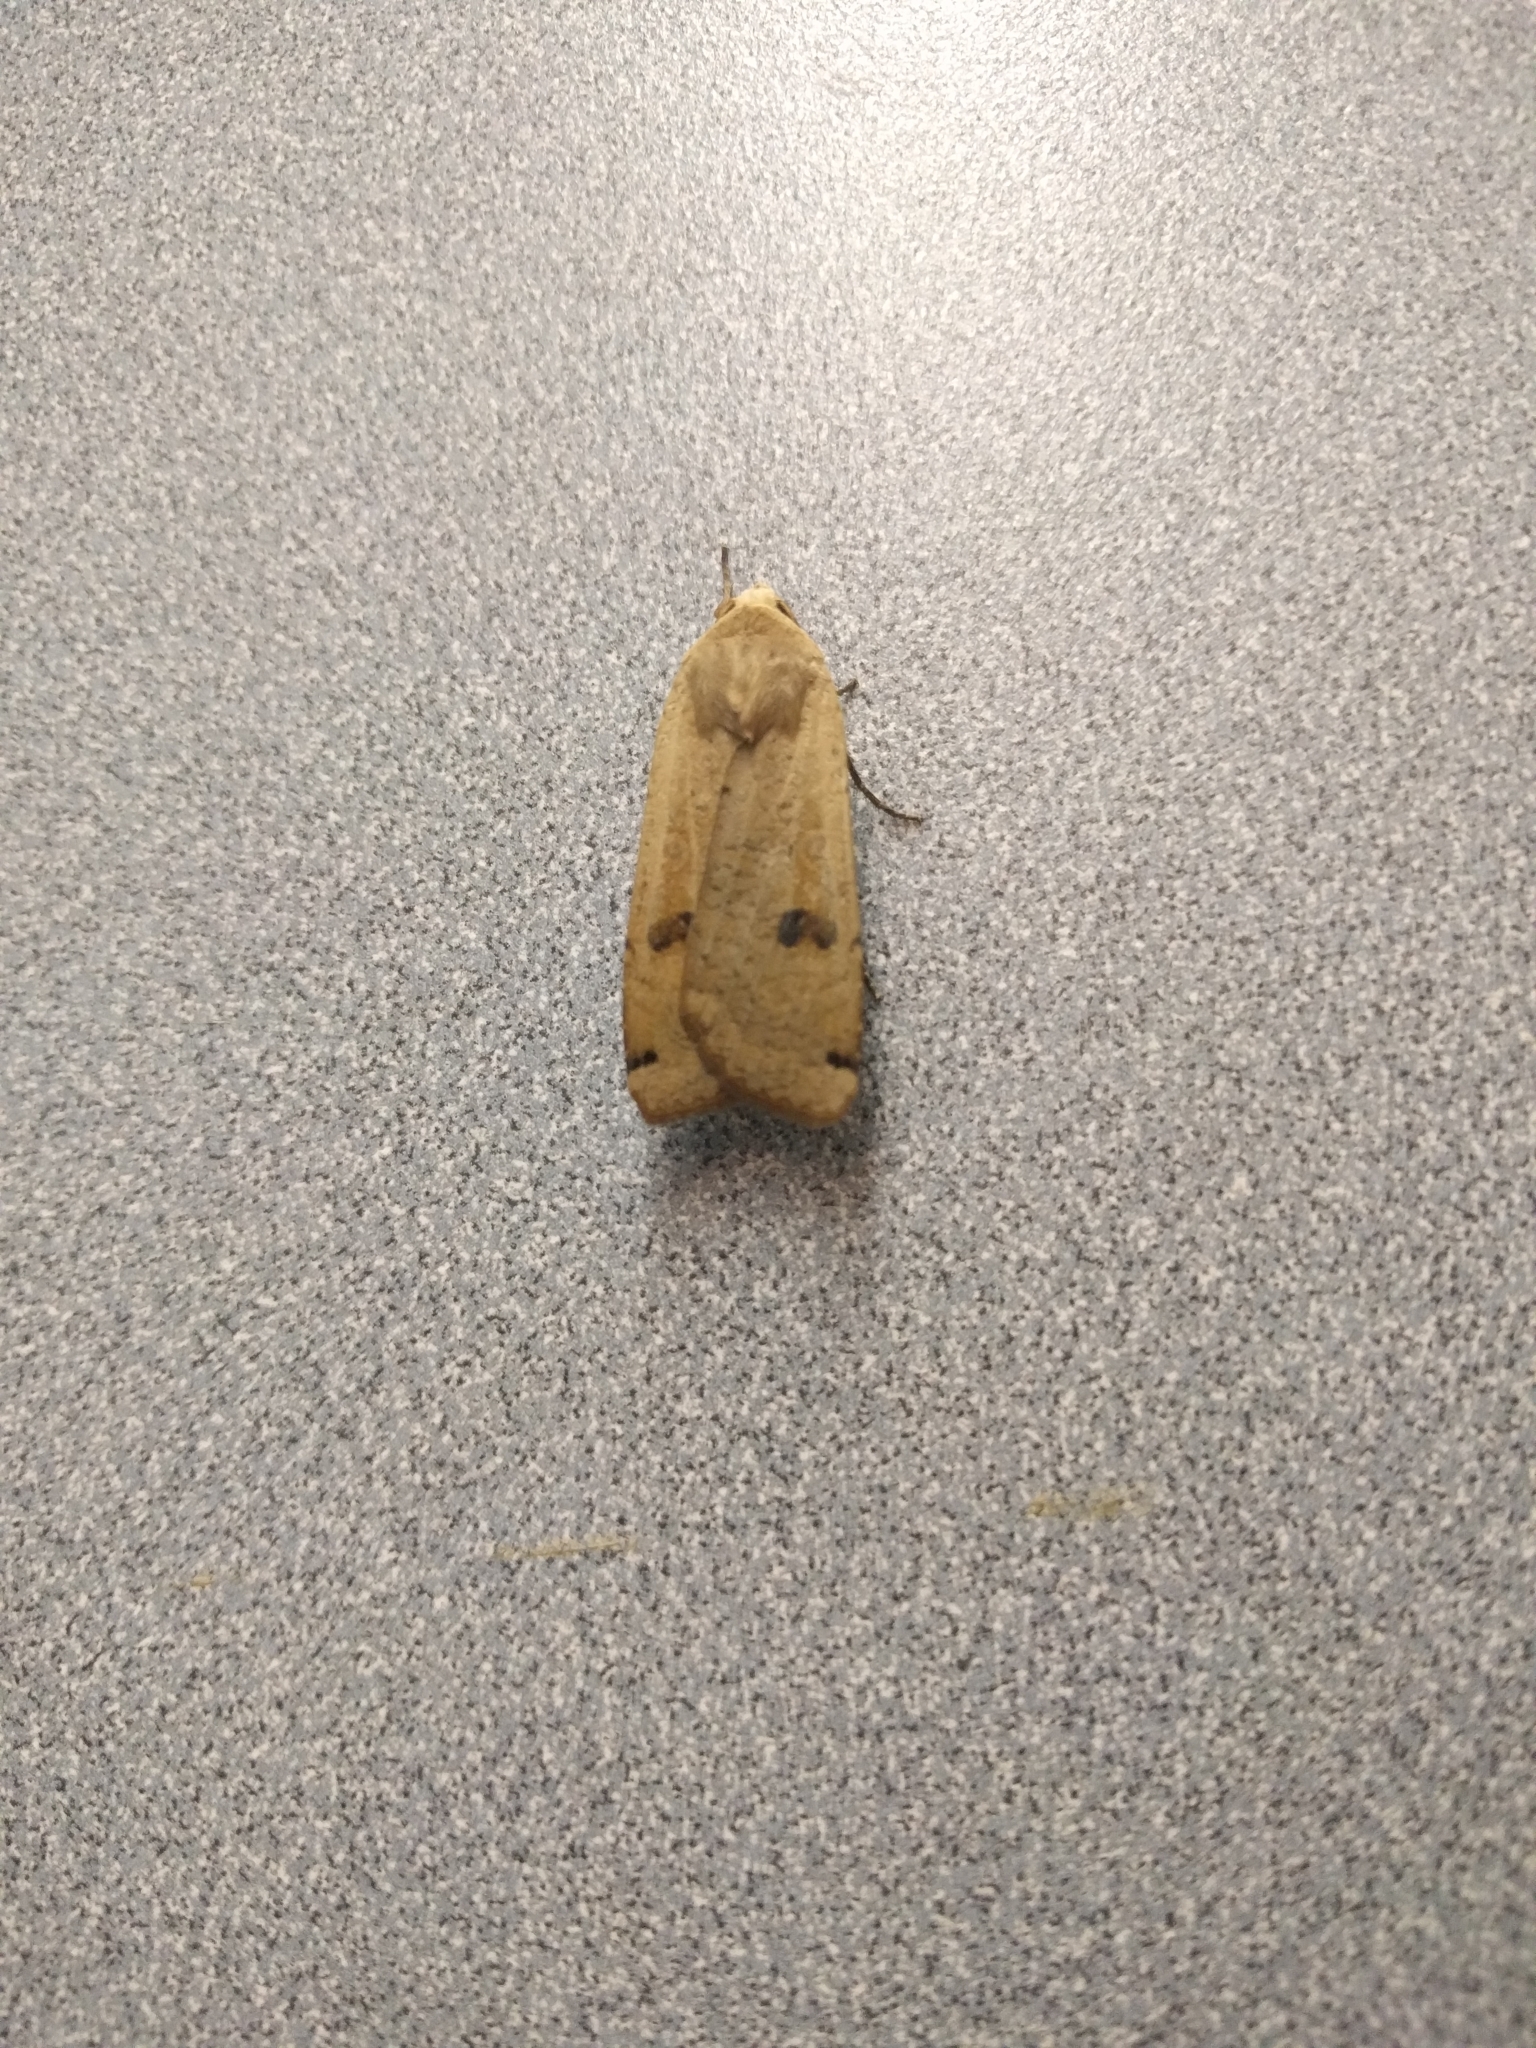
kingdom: Animalia
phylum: Arthropoda
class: Insecta
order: Lepidoptera
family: Noctuidae
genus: Noctua
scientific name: Noctua pronuba
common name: Large yellow underwing
